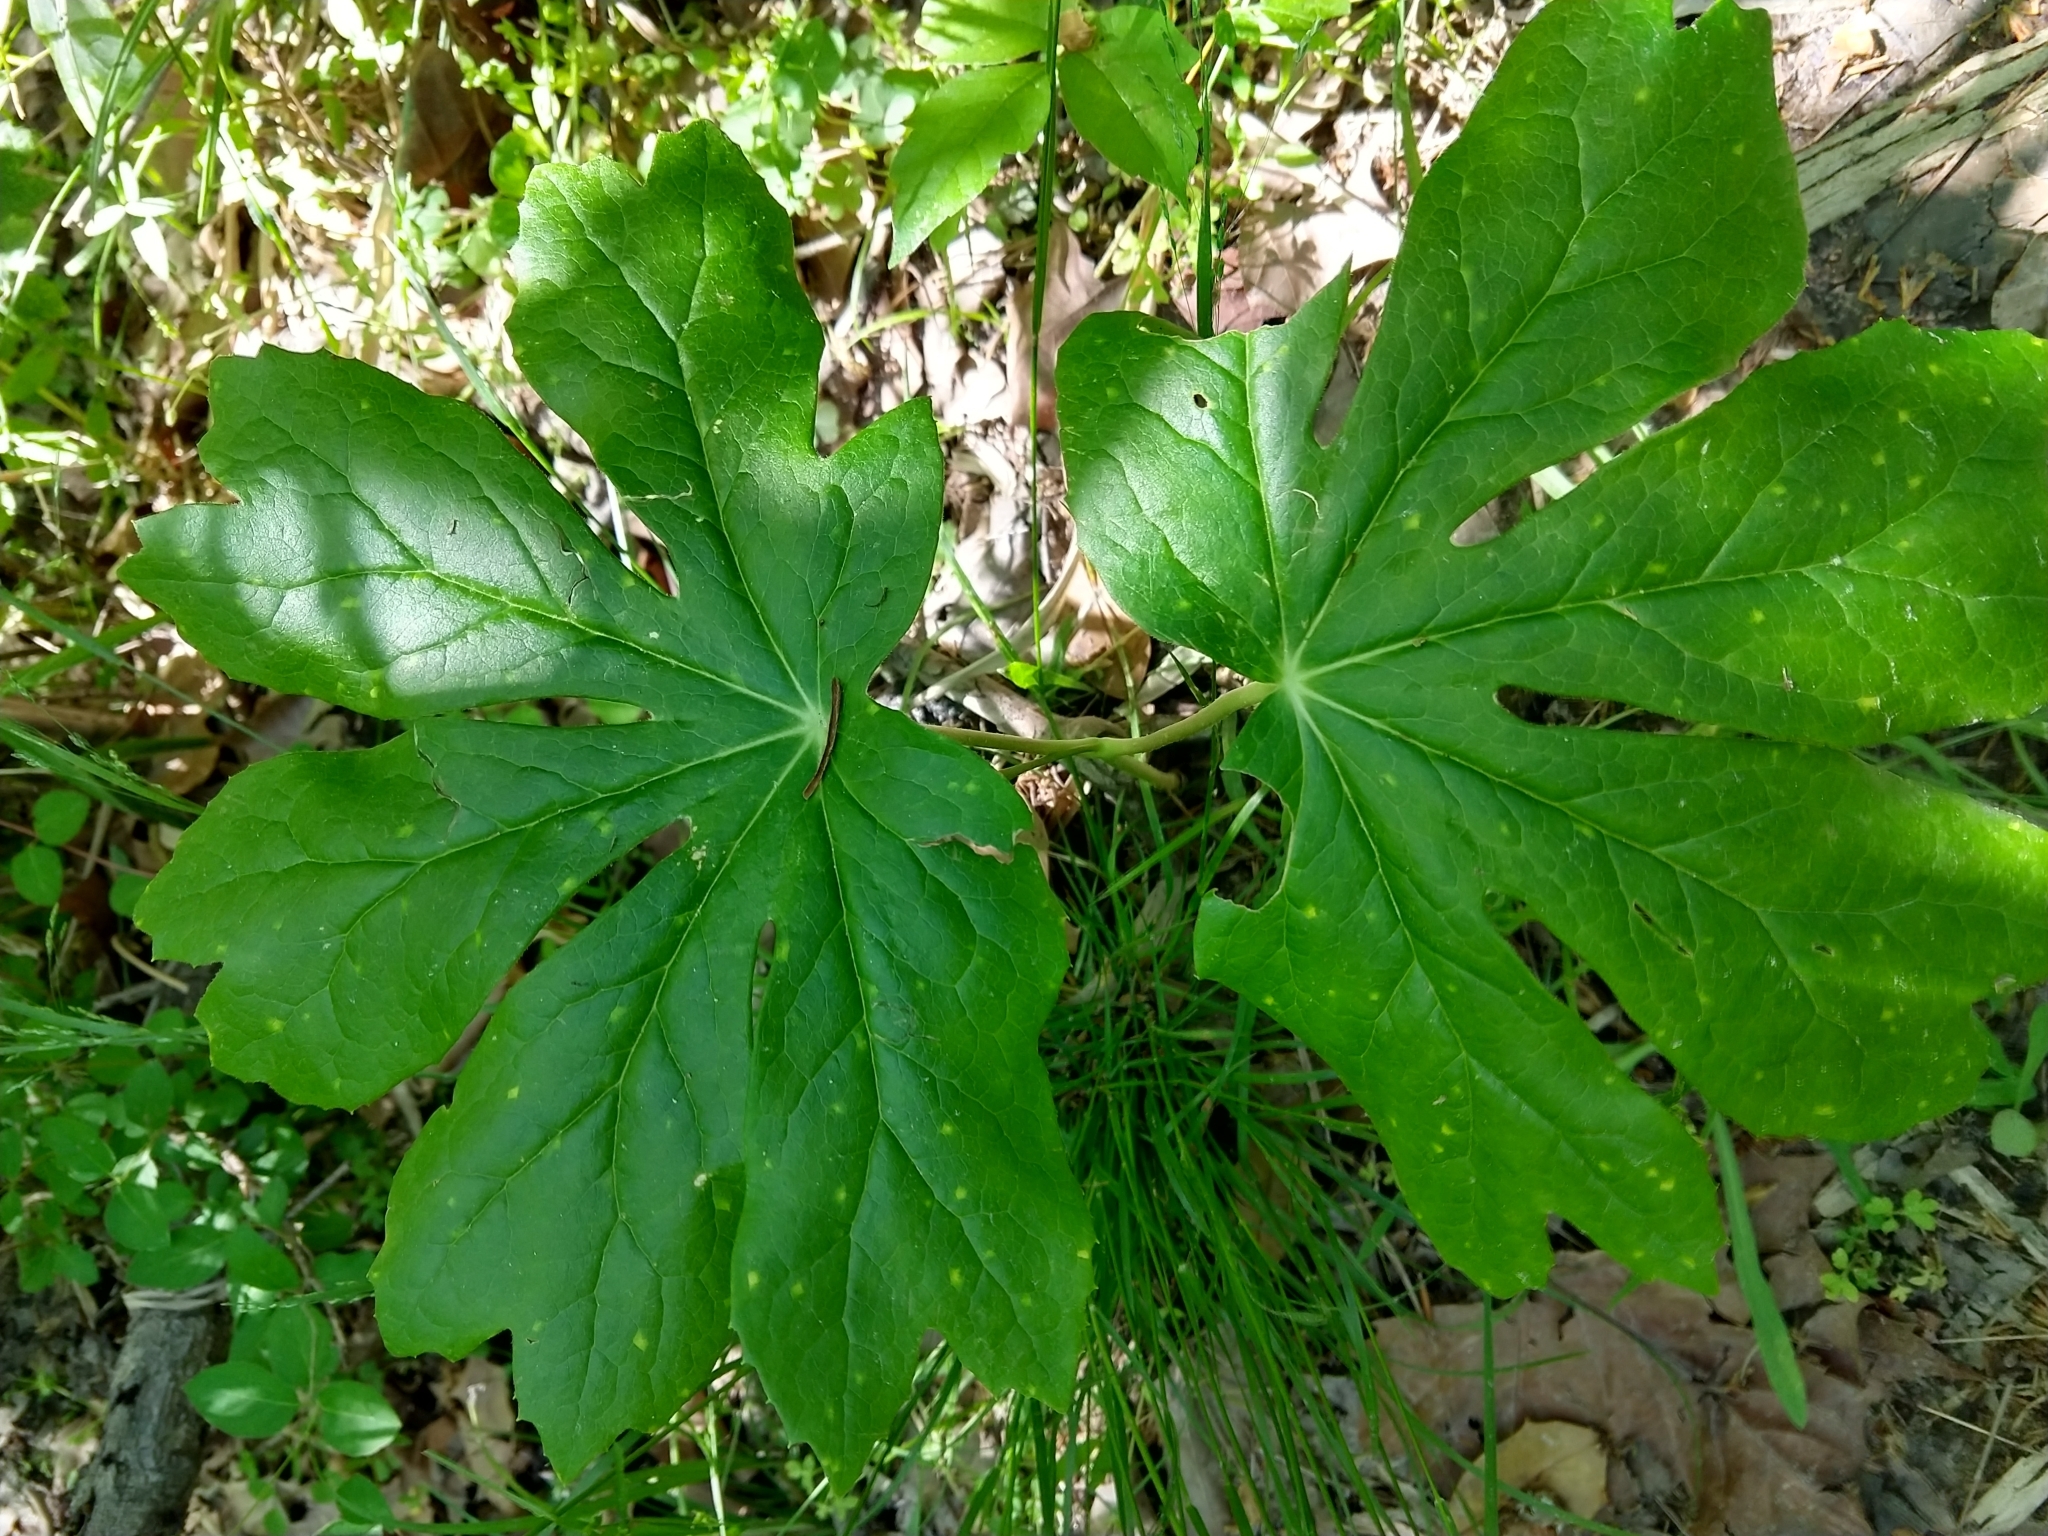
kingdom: Plantae
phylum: Tracheophyta
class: Magnoliopsida
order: Ranunculales
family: Berberidaceae
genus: Podophyllum
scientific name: Podophyllum peltatum
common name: Wild mandrake
